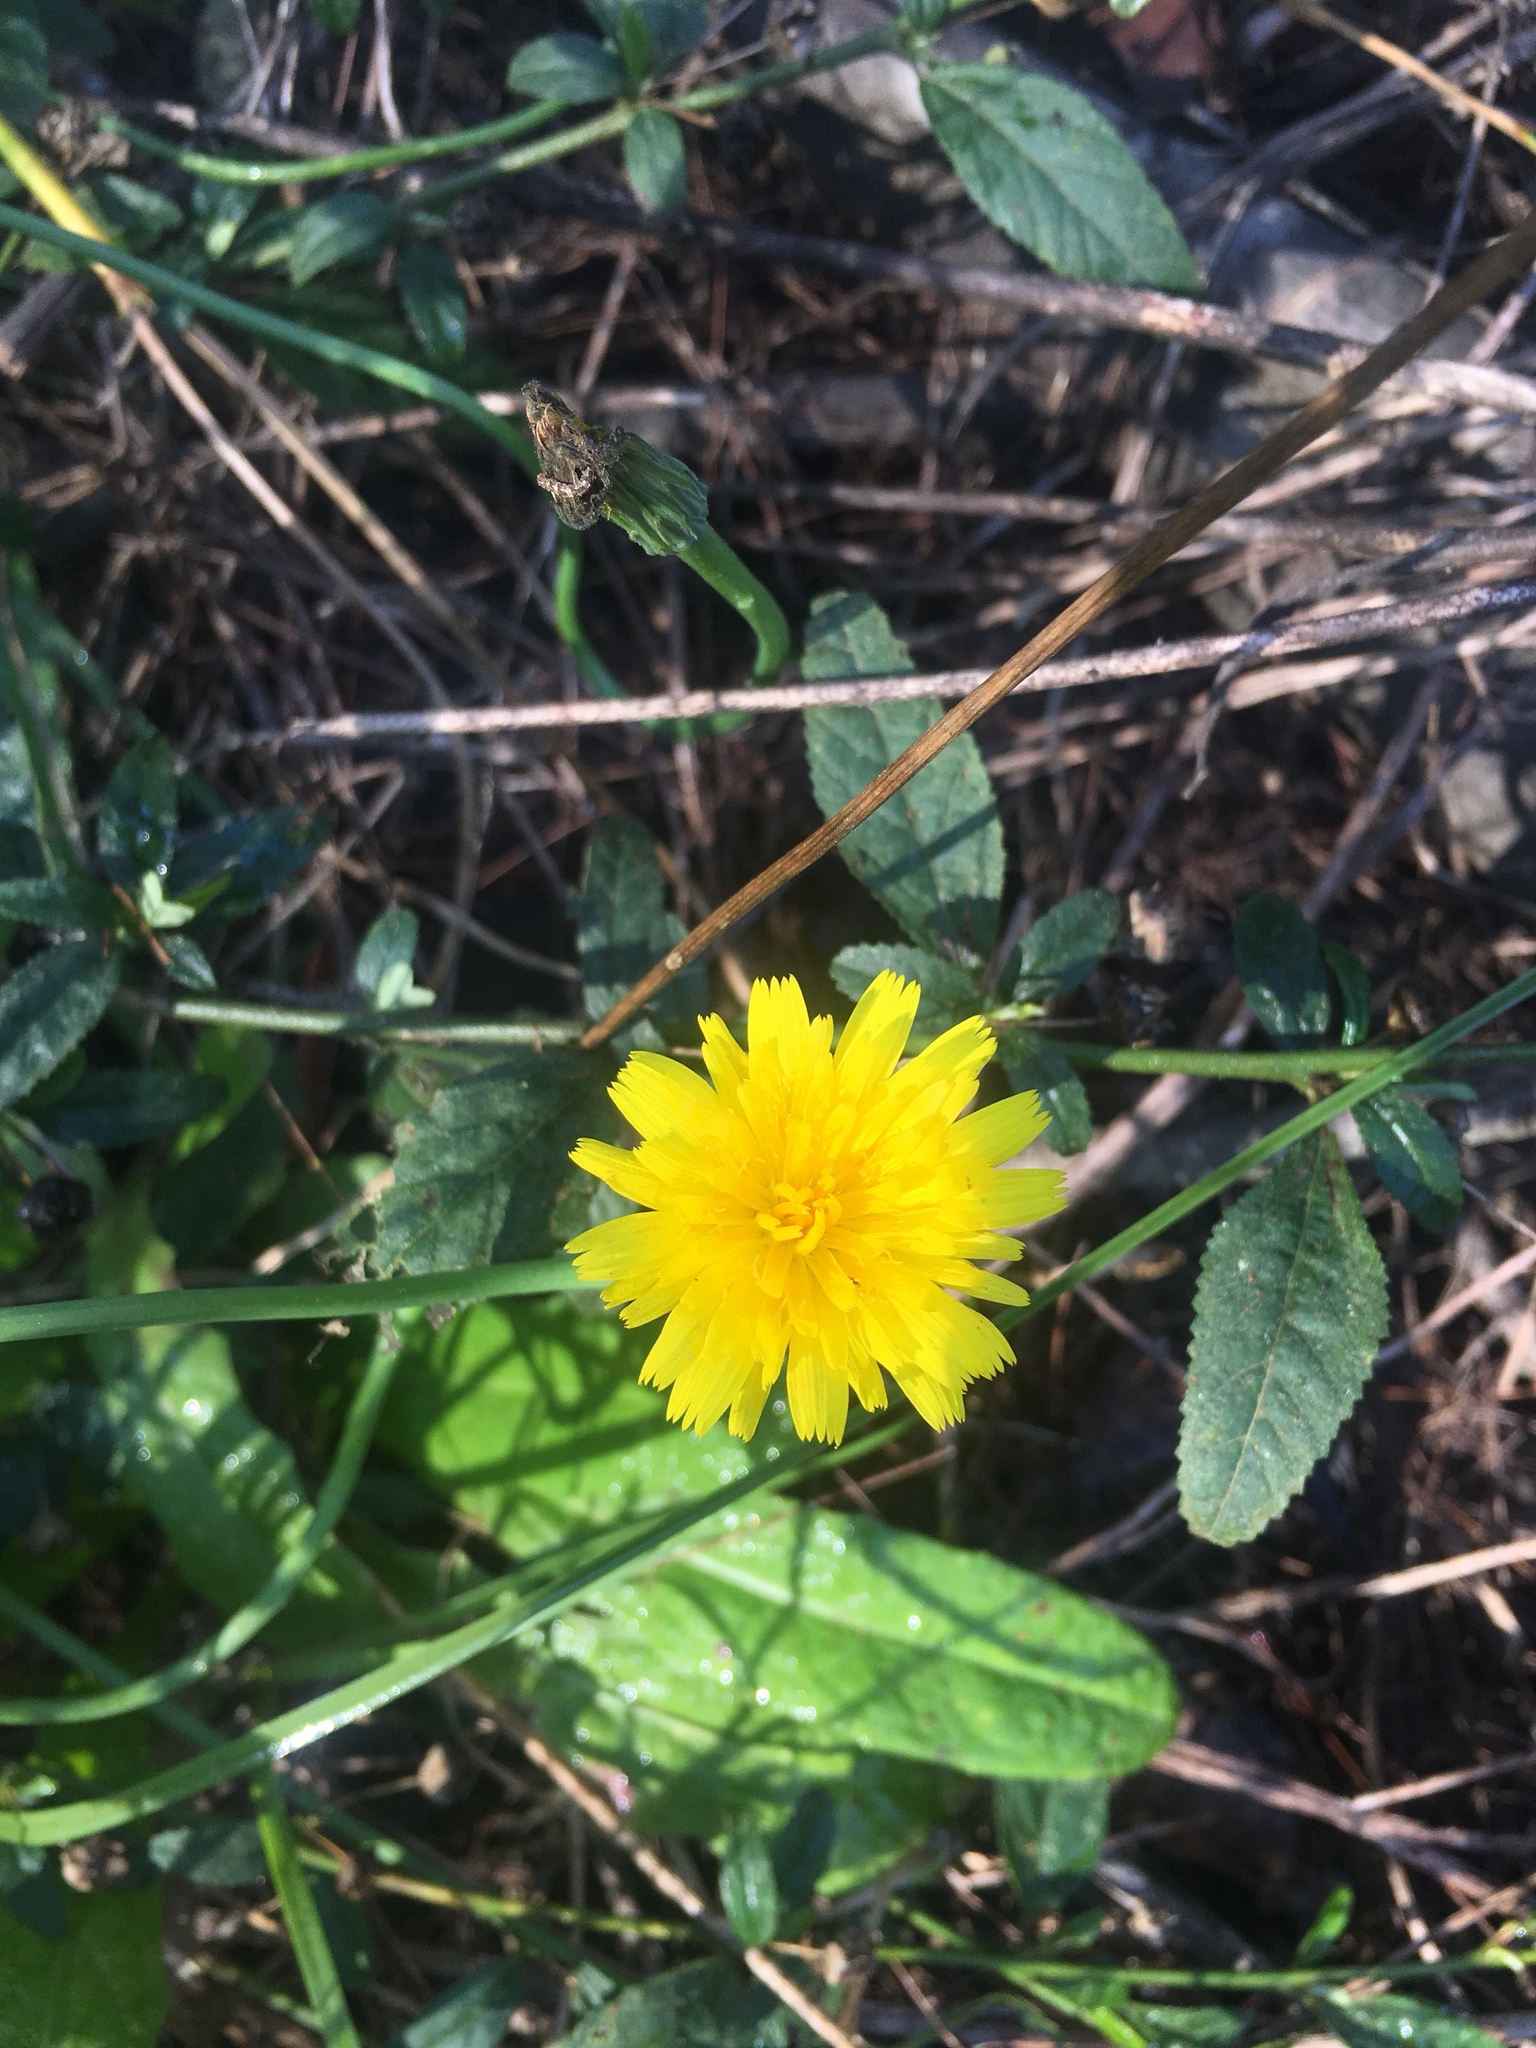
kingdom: Plantae
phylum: Tracheophyta
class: Magnoliopsida
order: Asterales
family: Asteraceae
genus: Hypochaeris
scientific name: Hypochaeris radicata
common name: Flatweed
